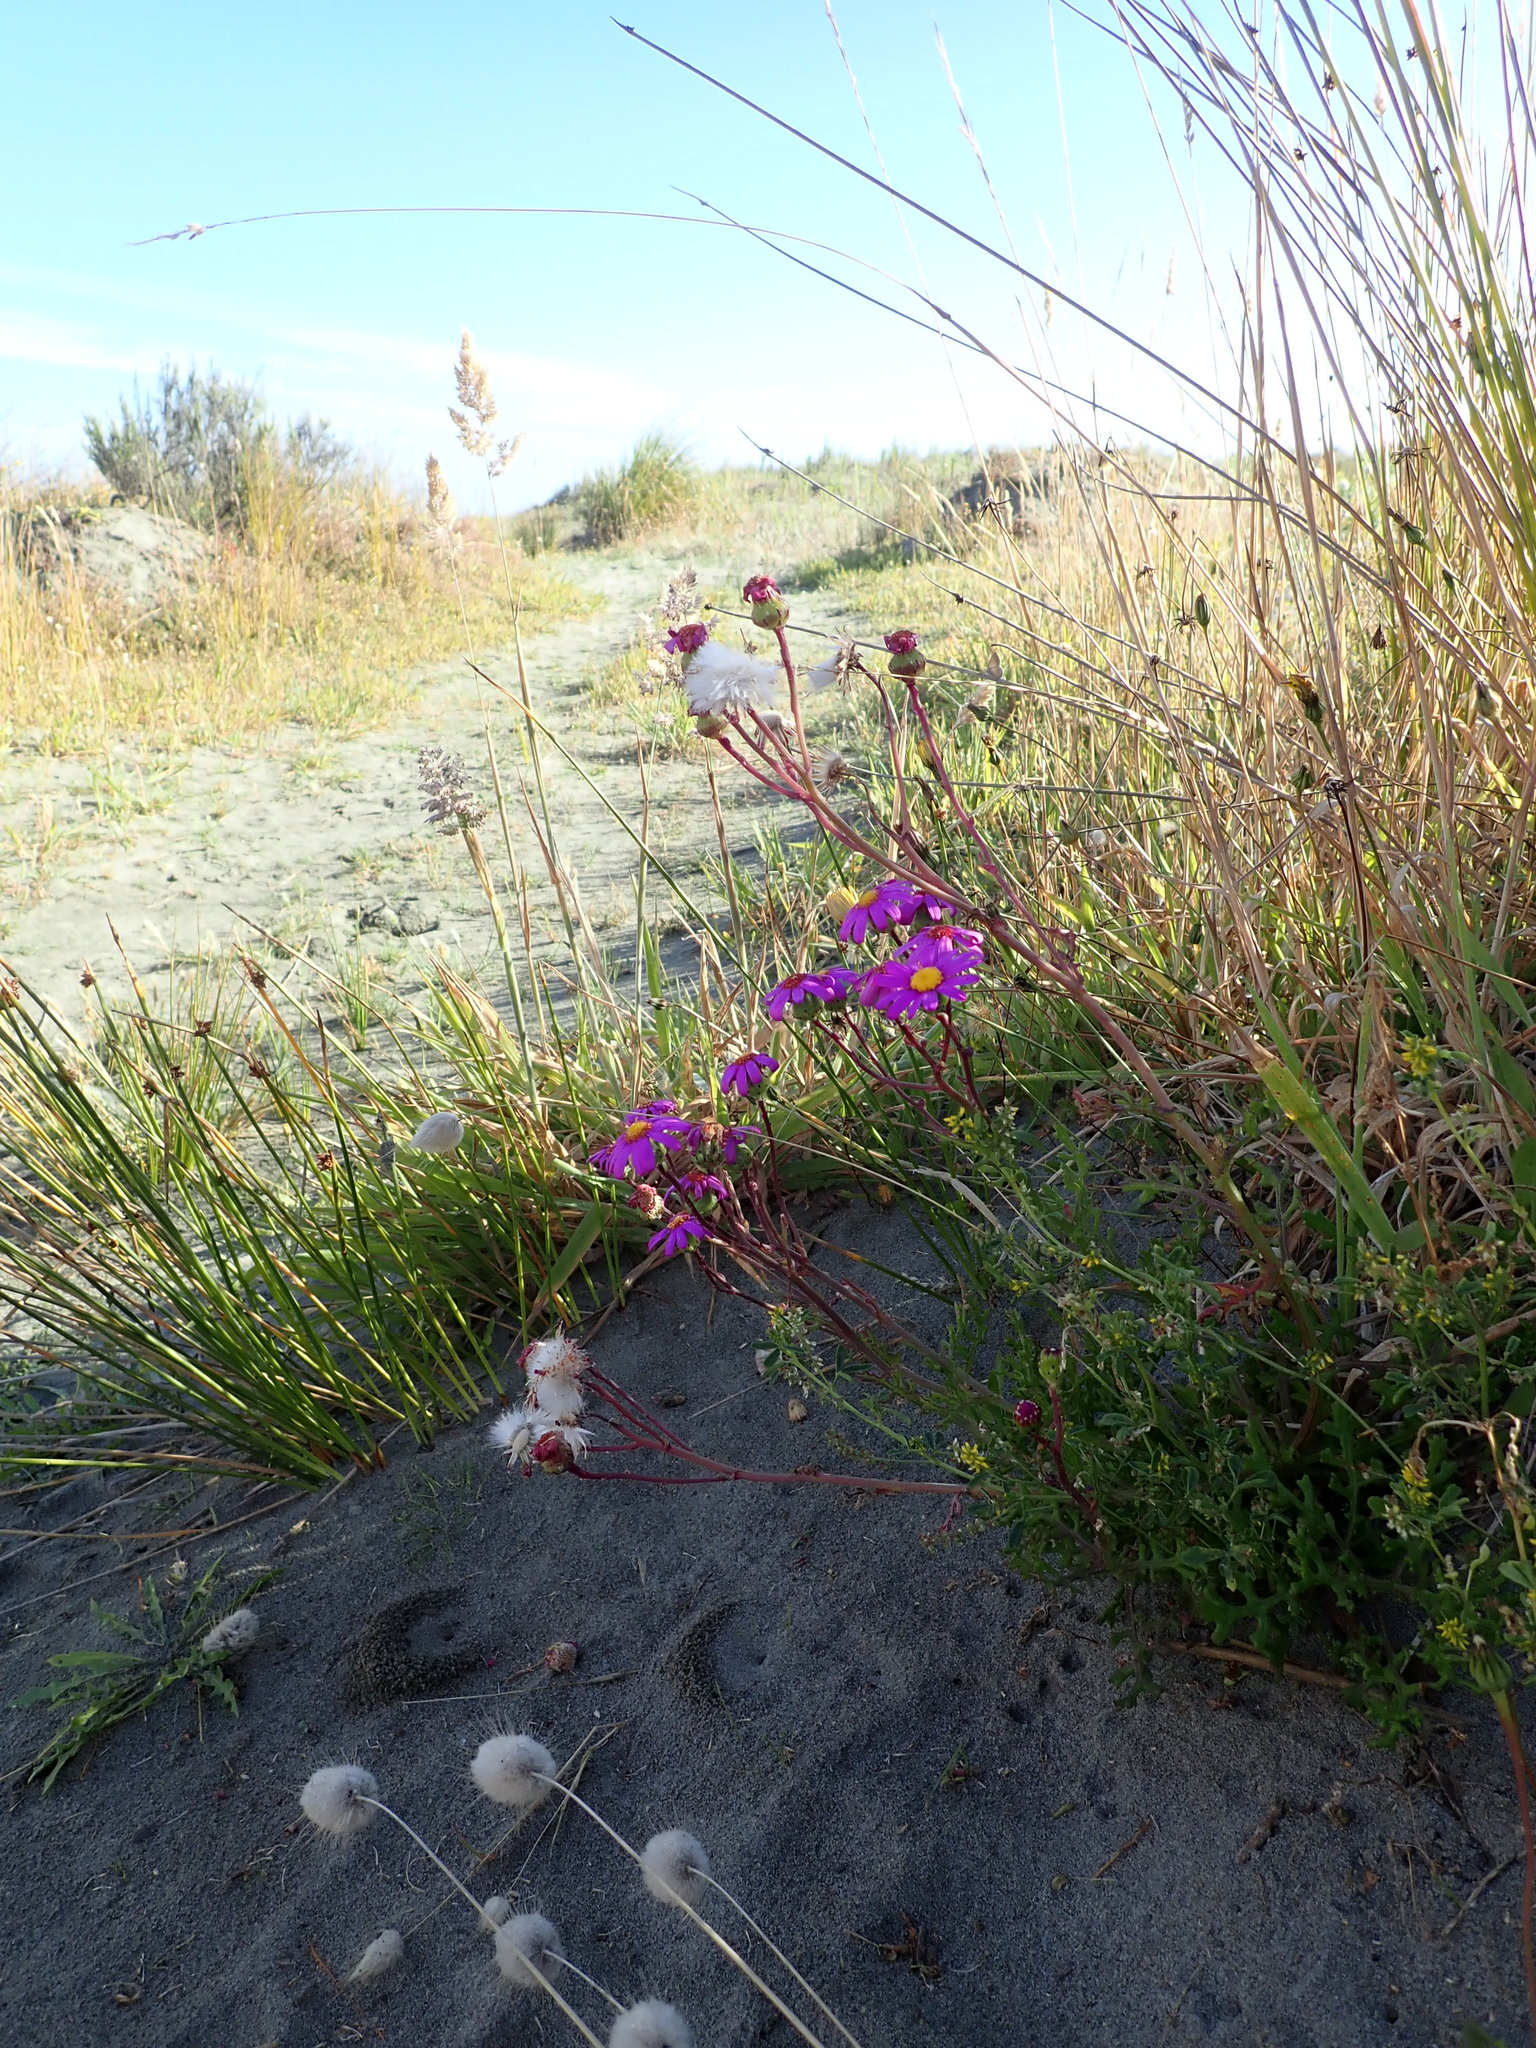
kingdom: Plantae
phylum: Tracheophyta
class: Magnoliopsida
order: Asterales
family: Asteraceae
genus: Senecio
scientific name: Senecio elegans
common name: Purple groundsel
